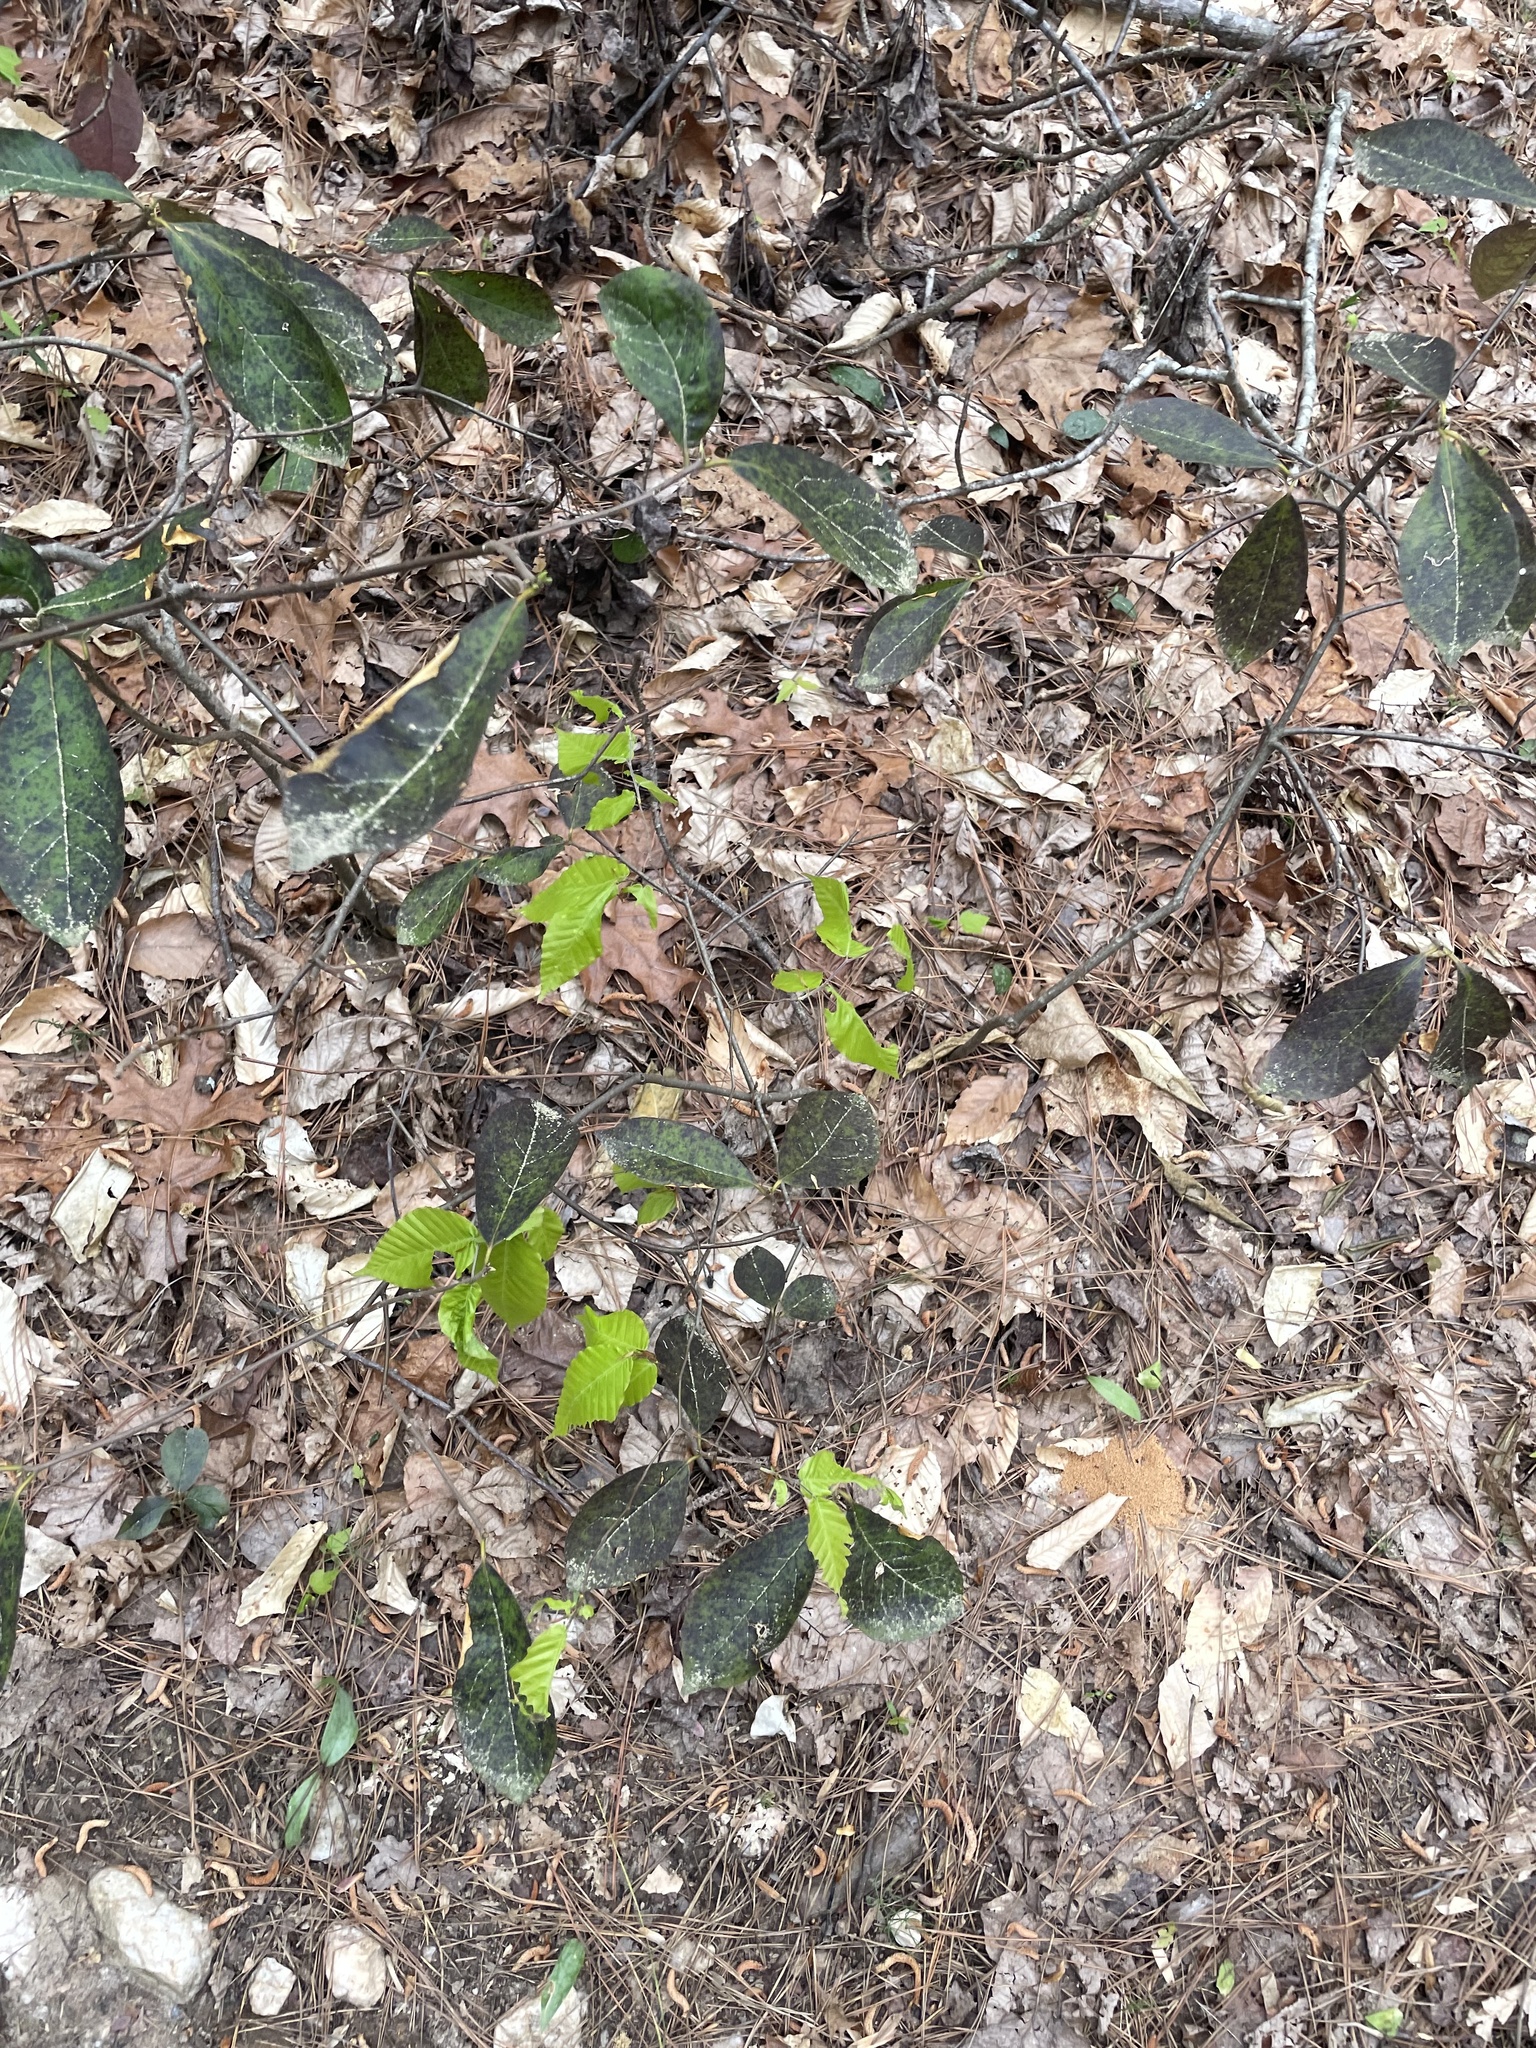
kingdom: Plantae
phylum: Tracheophyta
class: Magnoliopsida
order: Ericales
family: Symplocaceae
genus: Symplocos
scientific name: Symplocos tinctoria
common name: Horse-sugar
